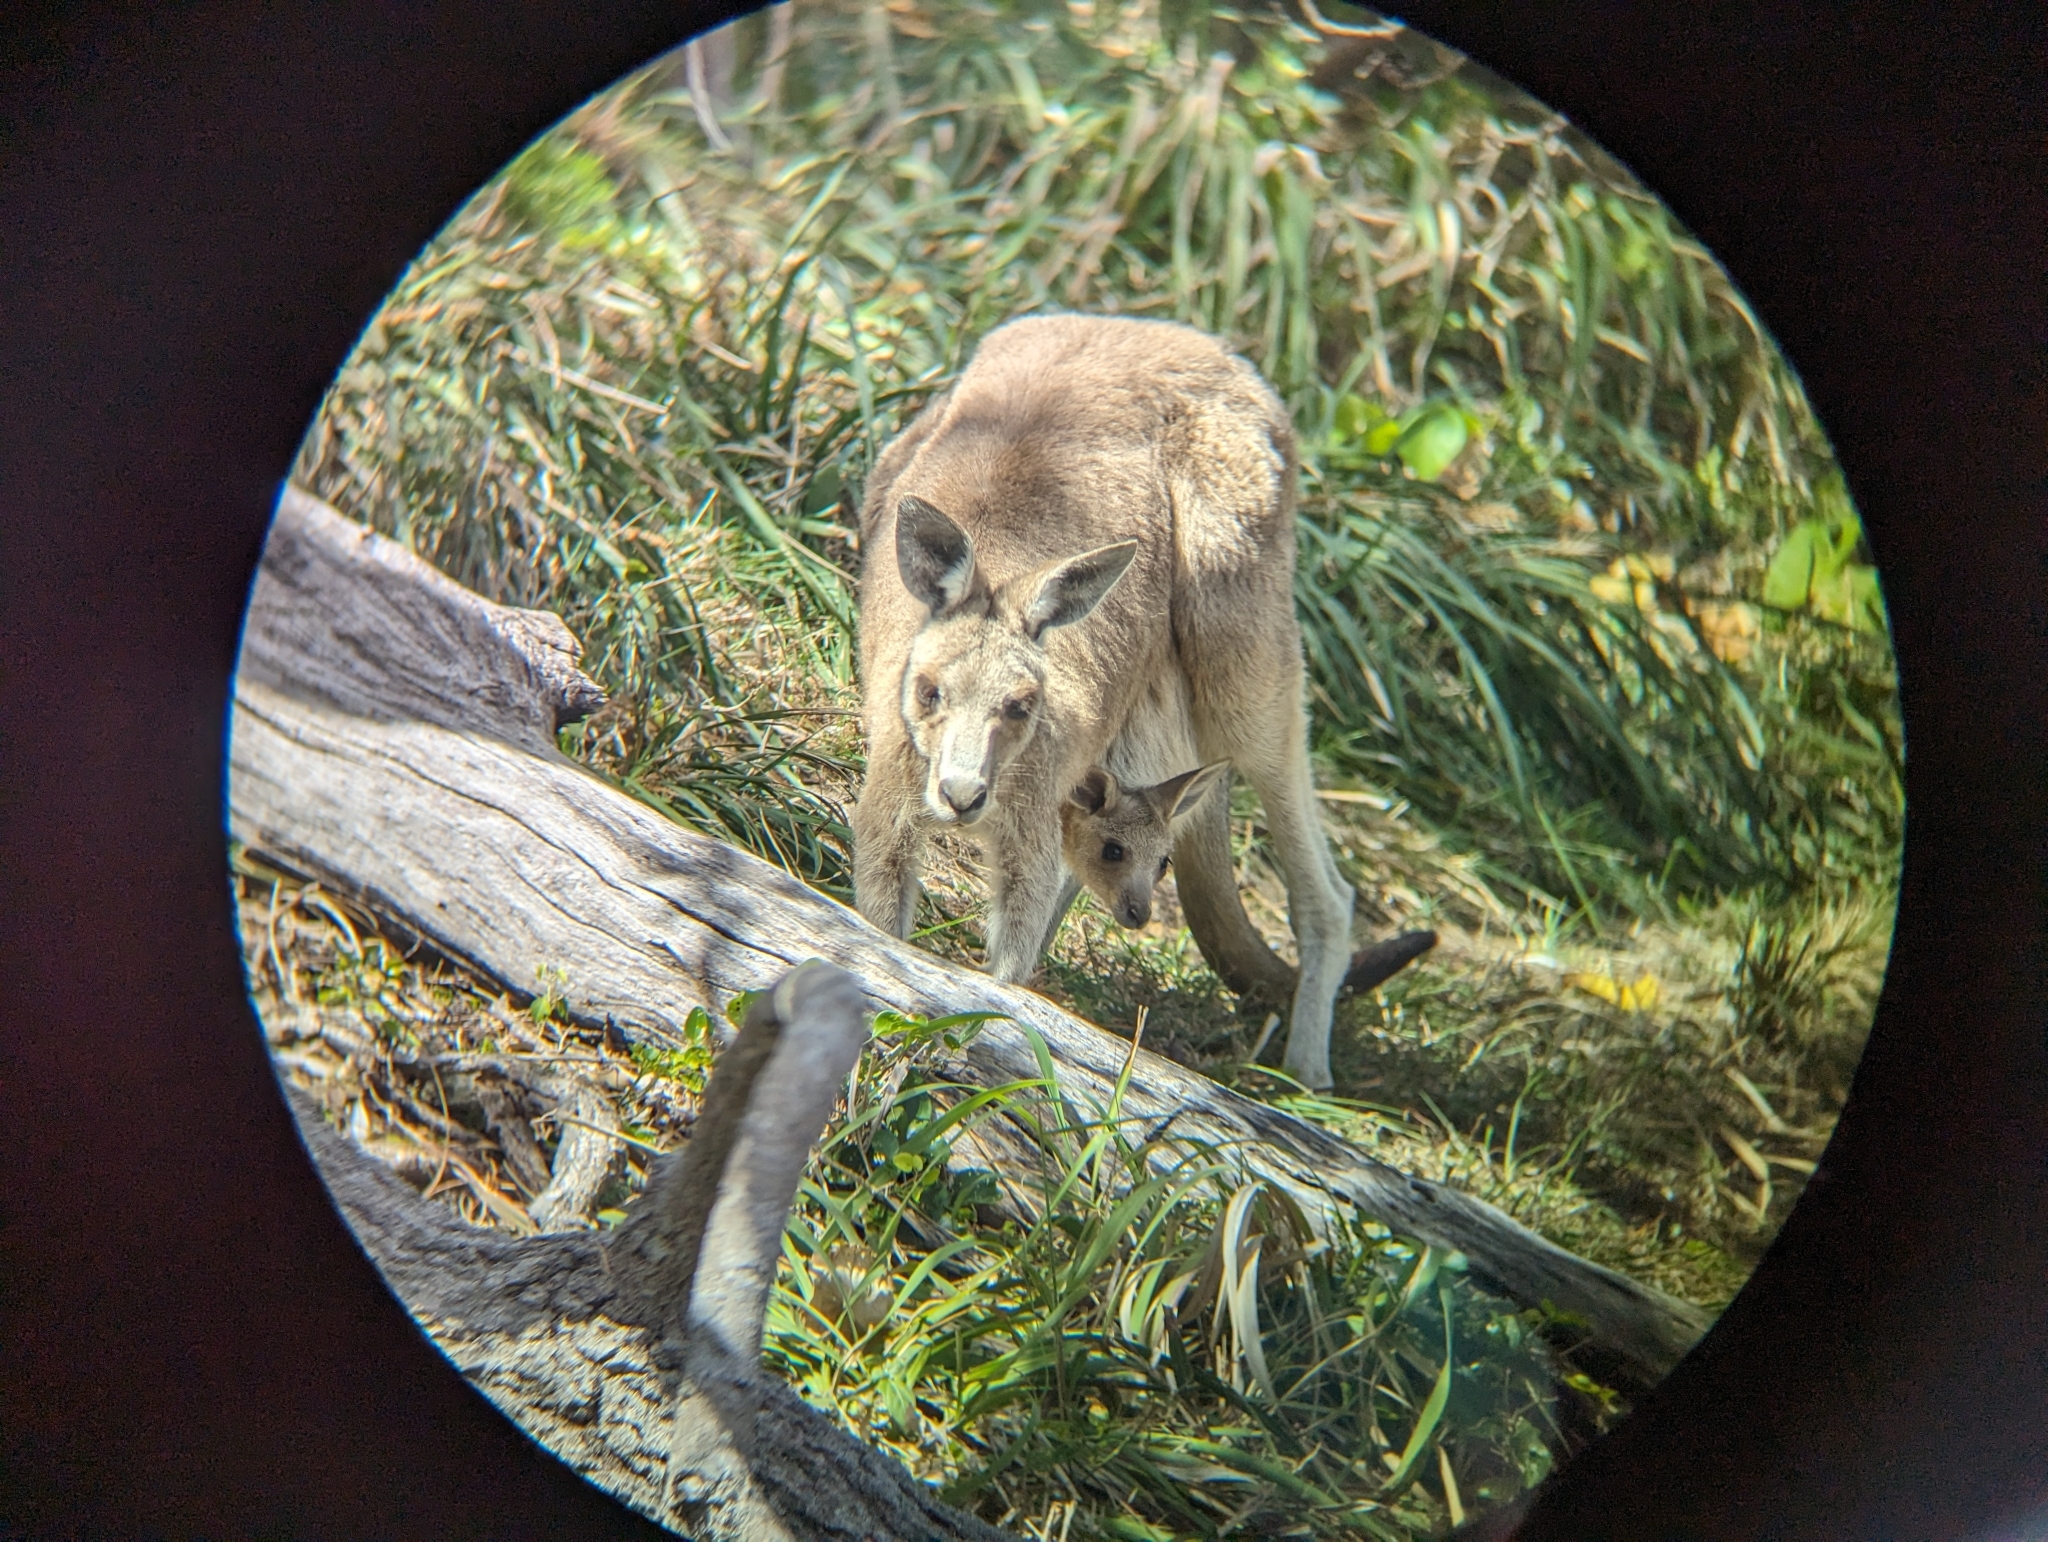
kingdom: Animalia
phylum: Chordata
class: Mammalia
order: Diprotodontia
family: Macropodidae
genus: Macropus
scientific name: Macropus giganteus
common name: Eastern grey kangaroo
